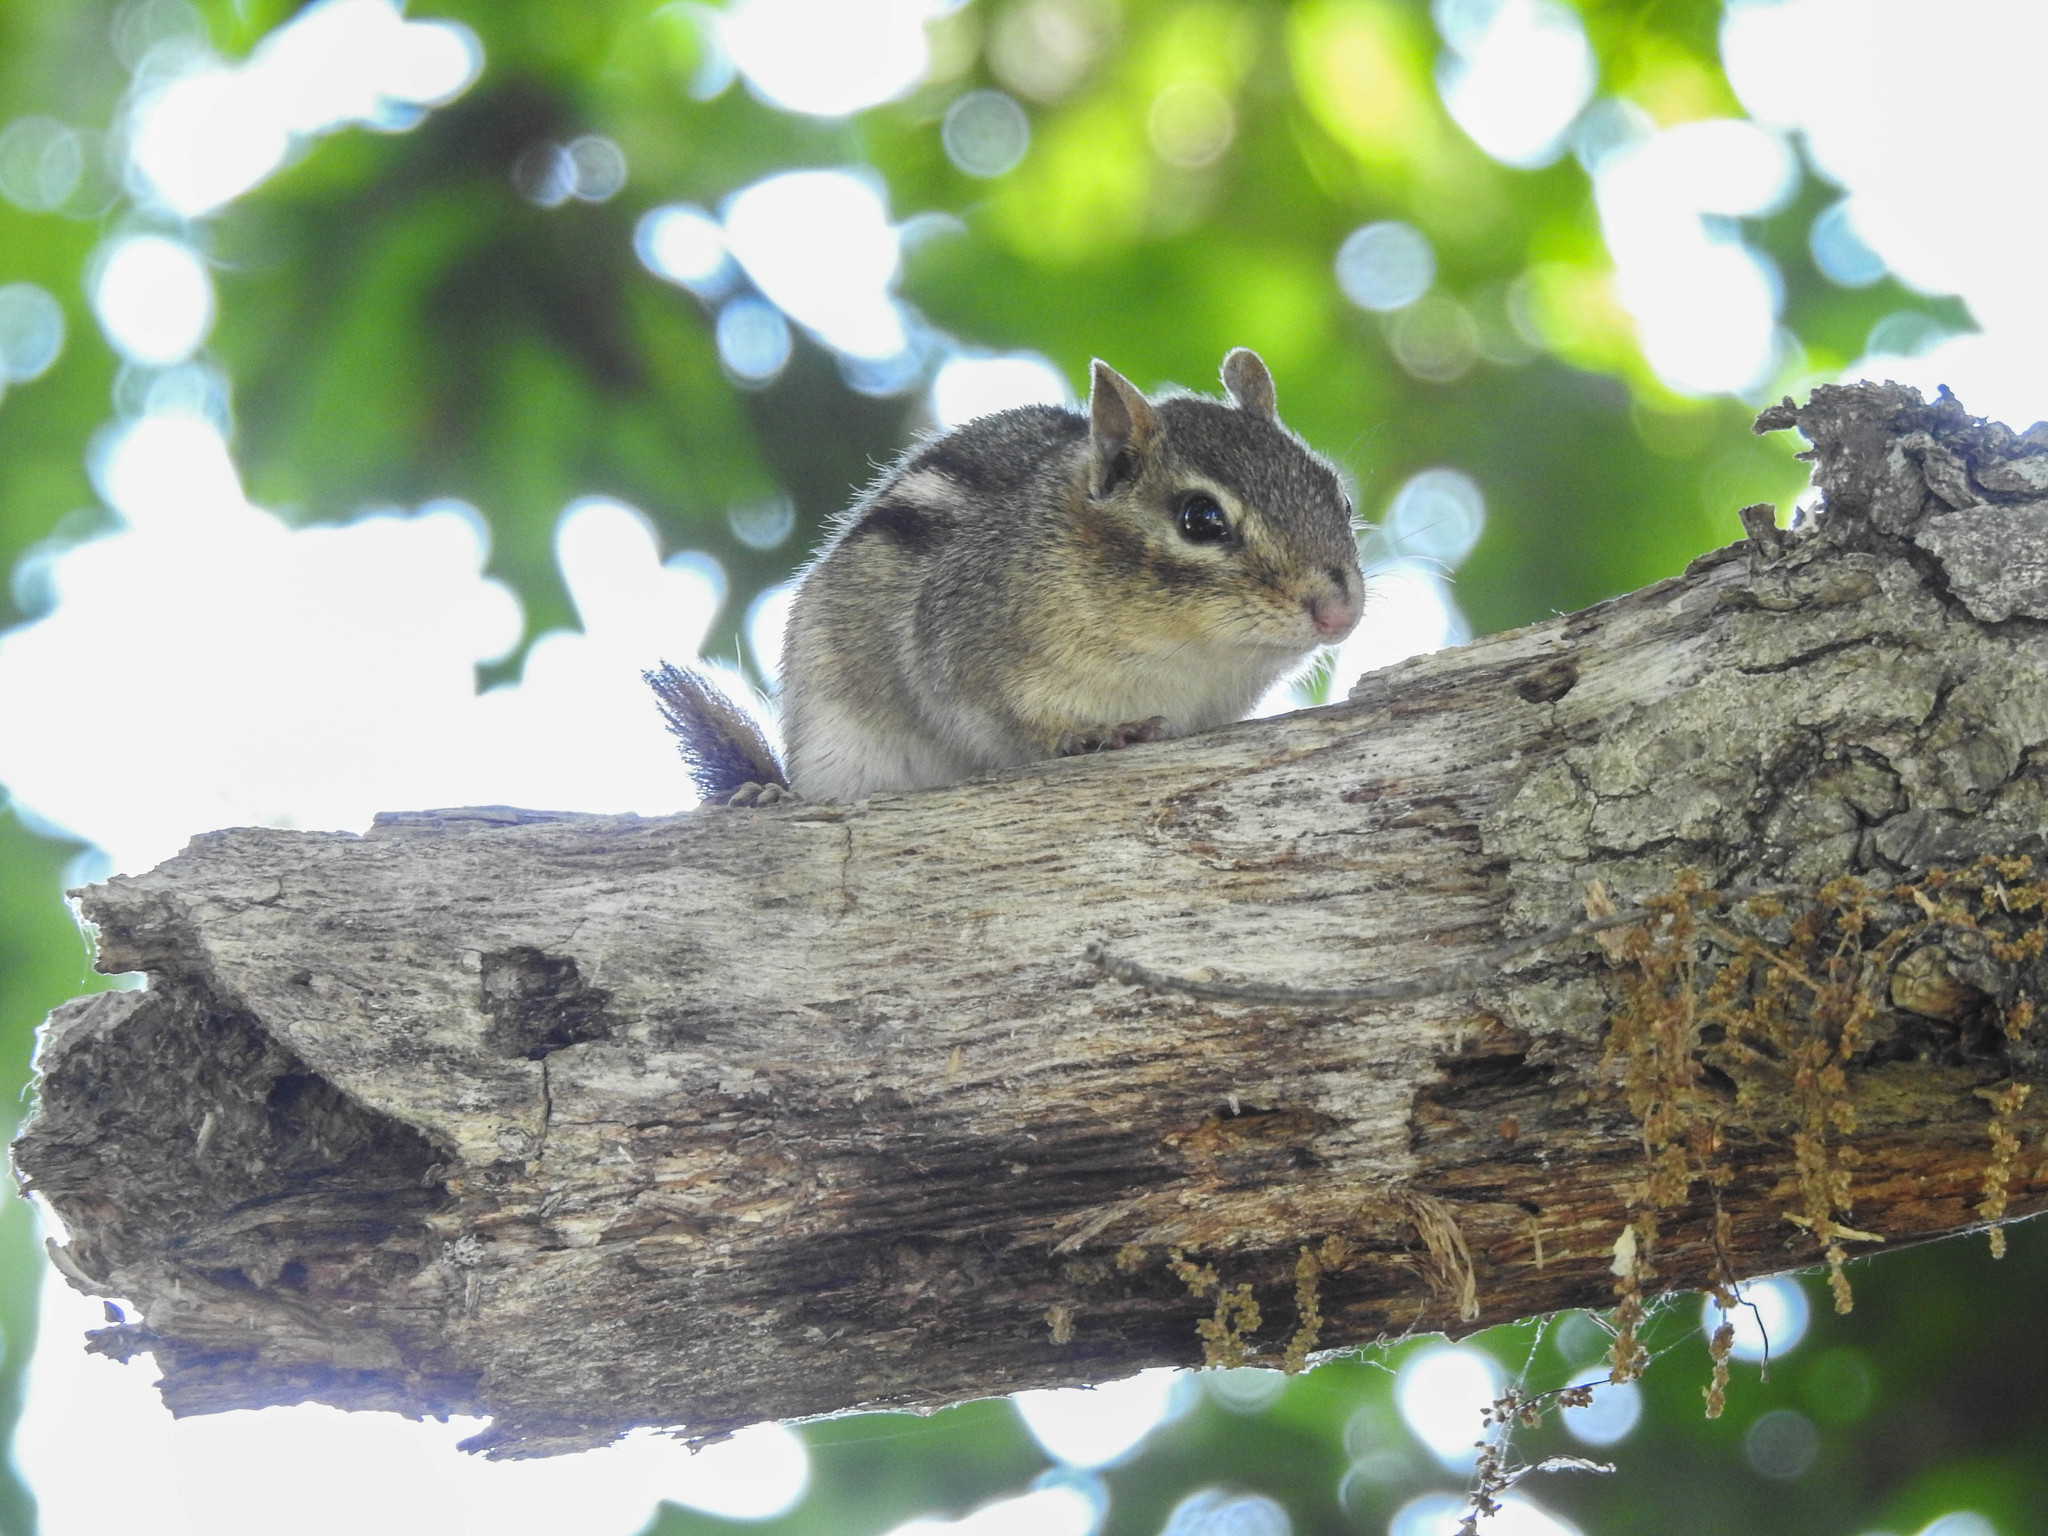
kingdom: Animalia
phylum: Chordata
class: Mammalia
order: Rodentia
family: Sciuridae
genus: Tamias
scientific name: Tamias striatus
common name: Eastern chipmunk
